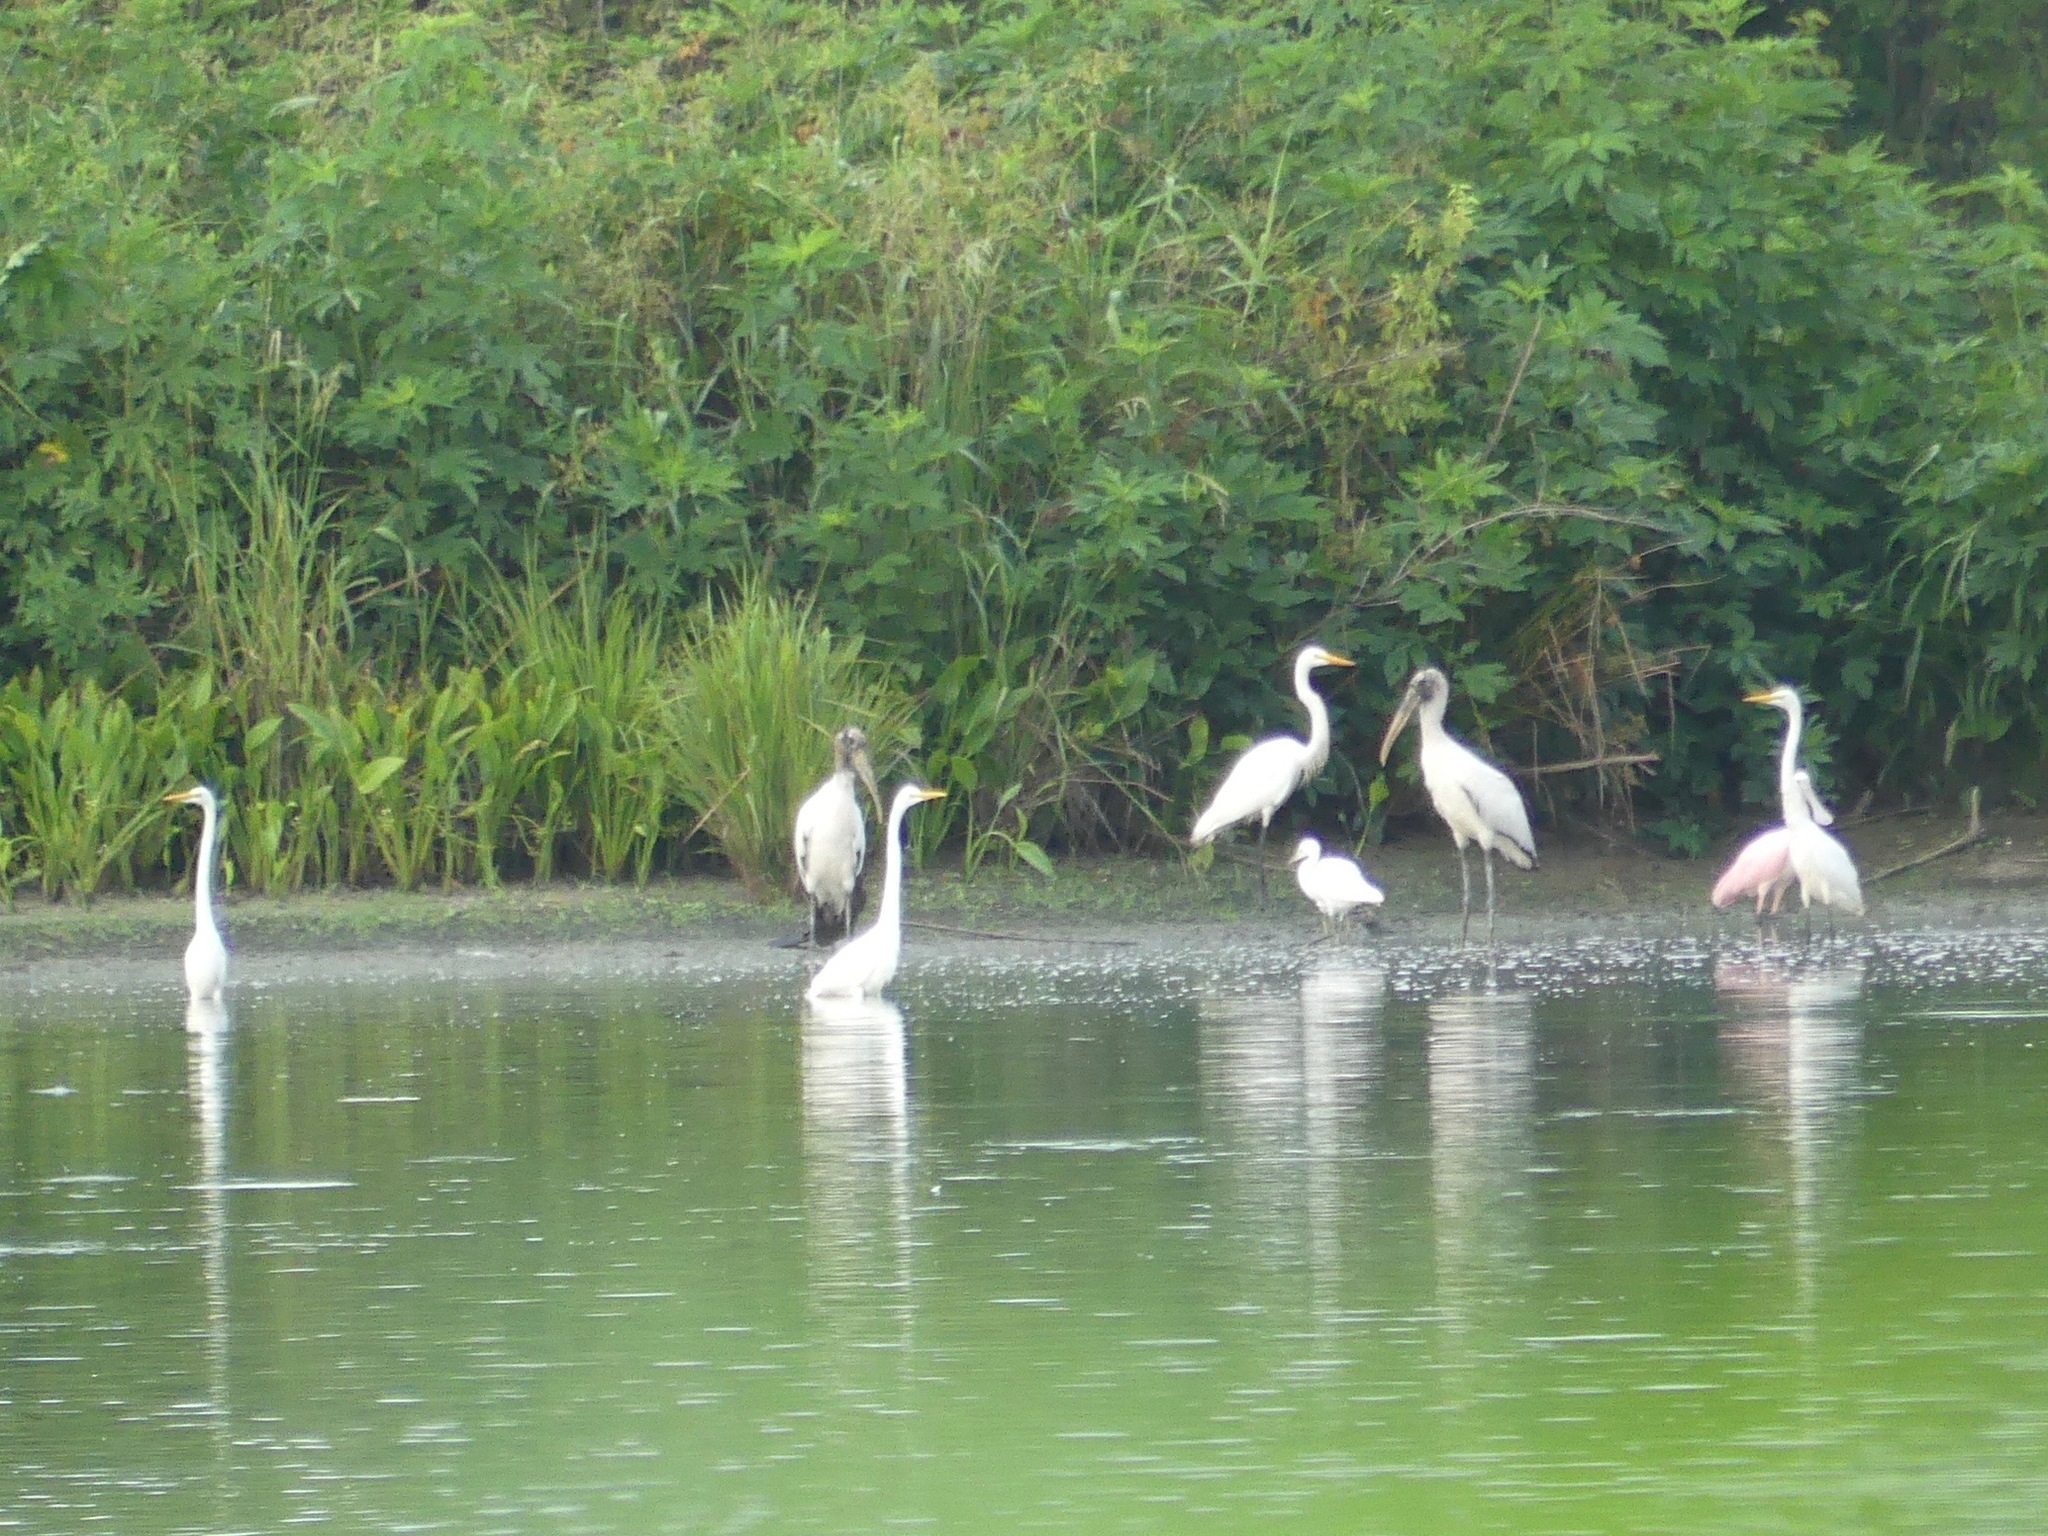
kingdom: Animalia
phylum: Chordata
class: Aves
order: Ciconiiformes
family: Ciconiidae
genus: Mycteria
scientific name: Mycteria americana
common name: Wood stork
